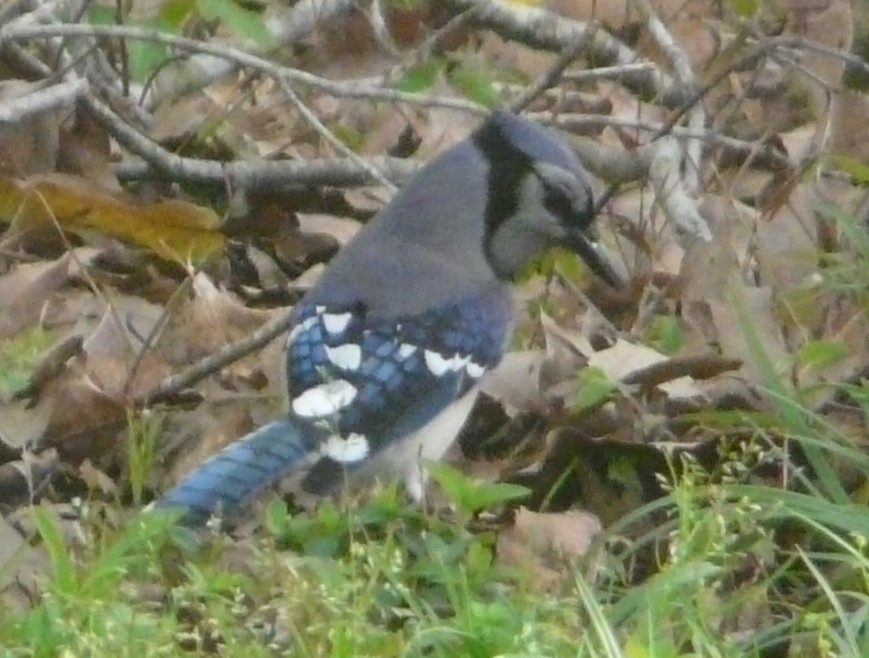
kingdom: Animalia
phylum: Chordata
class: Aves
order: Passeriformes
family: Corvidae
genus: Cyanocitta
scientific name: Cyanocitta cristata
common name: Blue jay
